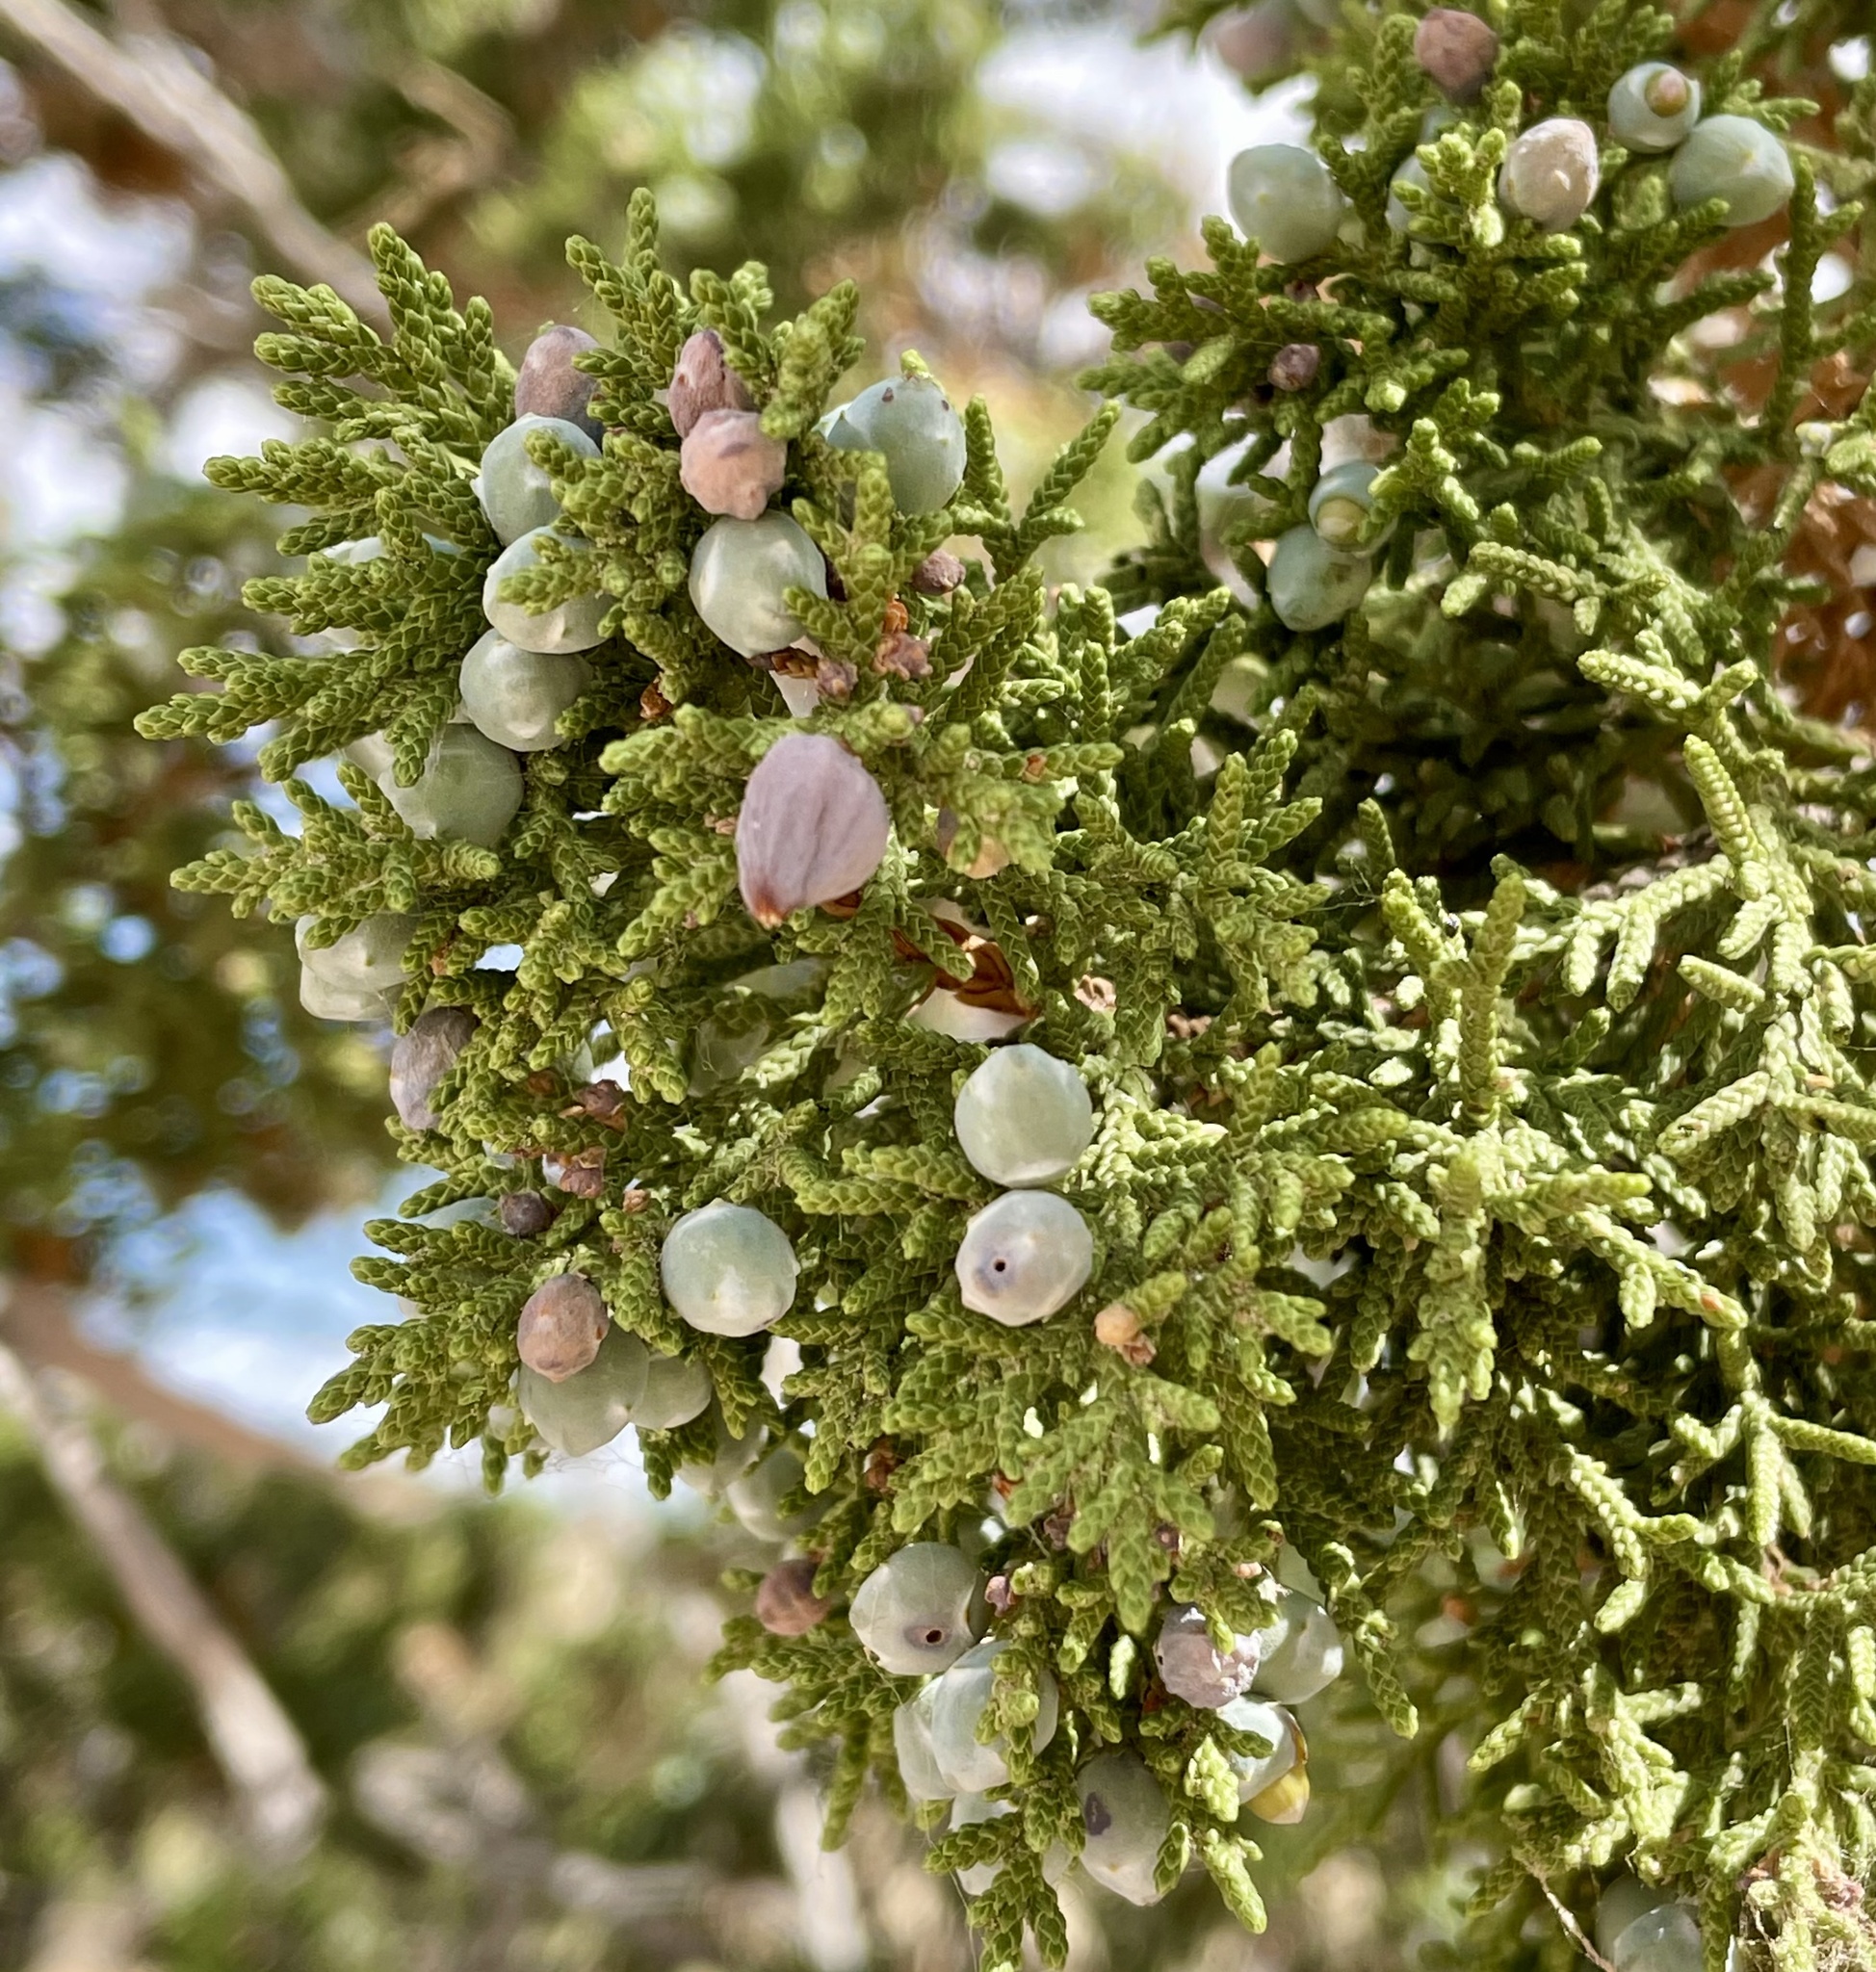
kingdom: Plantae
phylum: Tracheophyta
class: Pinopsida
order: Pinales
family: Cupressaceae
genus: Juniperus
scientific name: Juniperus monosperma
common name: One-seed juniper
